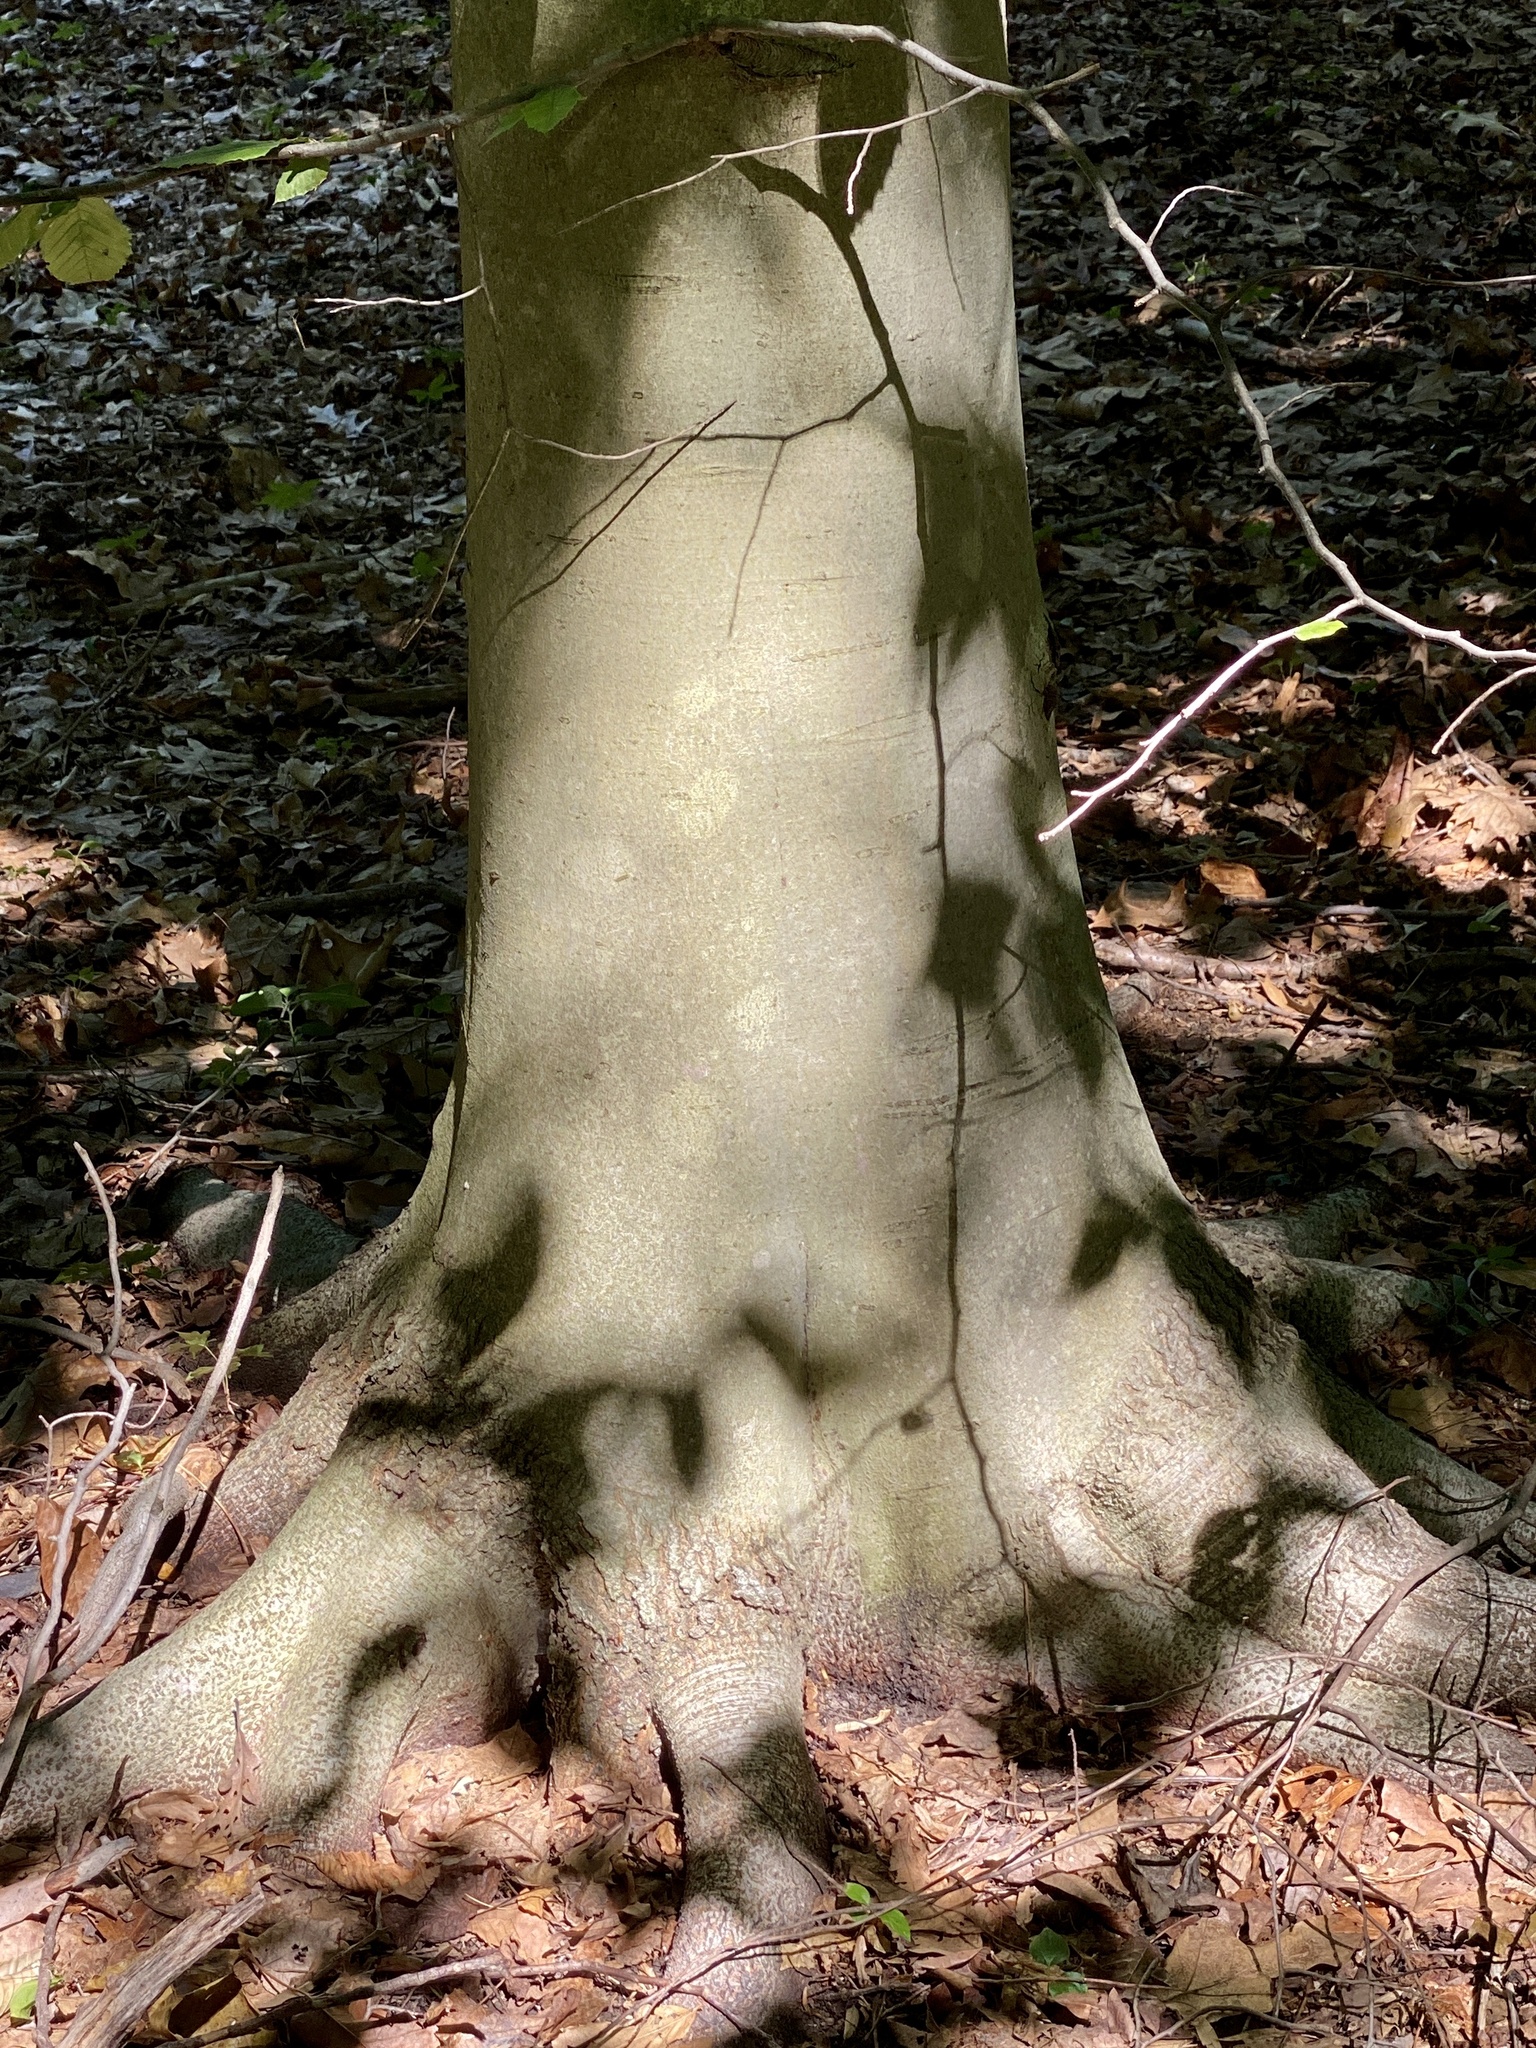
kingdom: Plantae
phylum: Tracheophyta
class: Magnoliopsida
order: Fagales
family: Fagaceae
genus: Fagus
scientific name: Fagus grandifolia
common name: American beech
